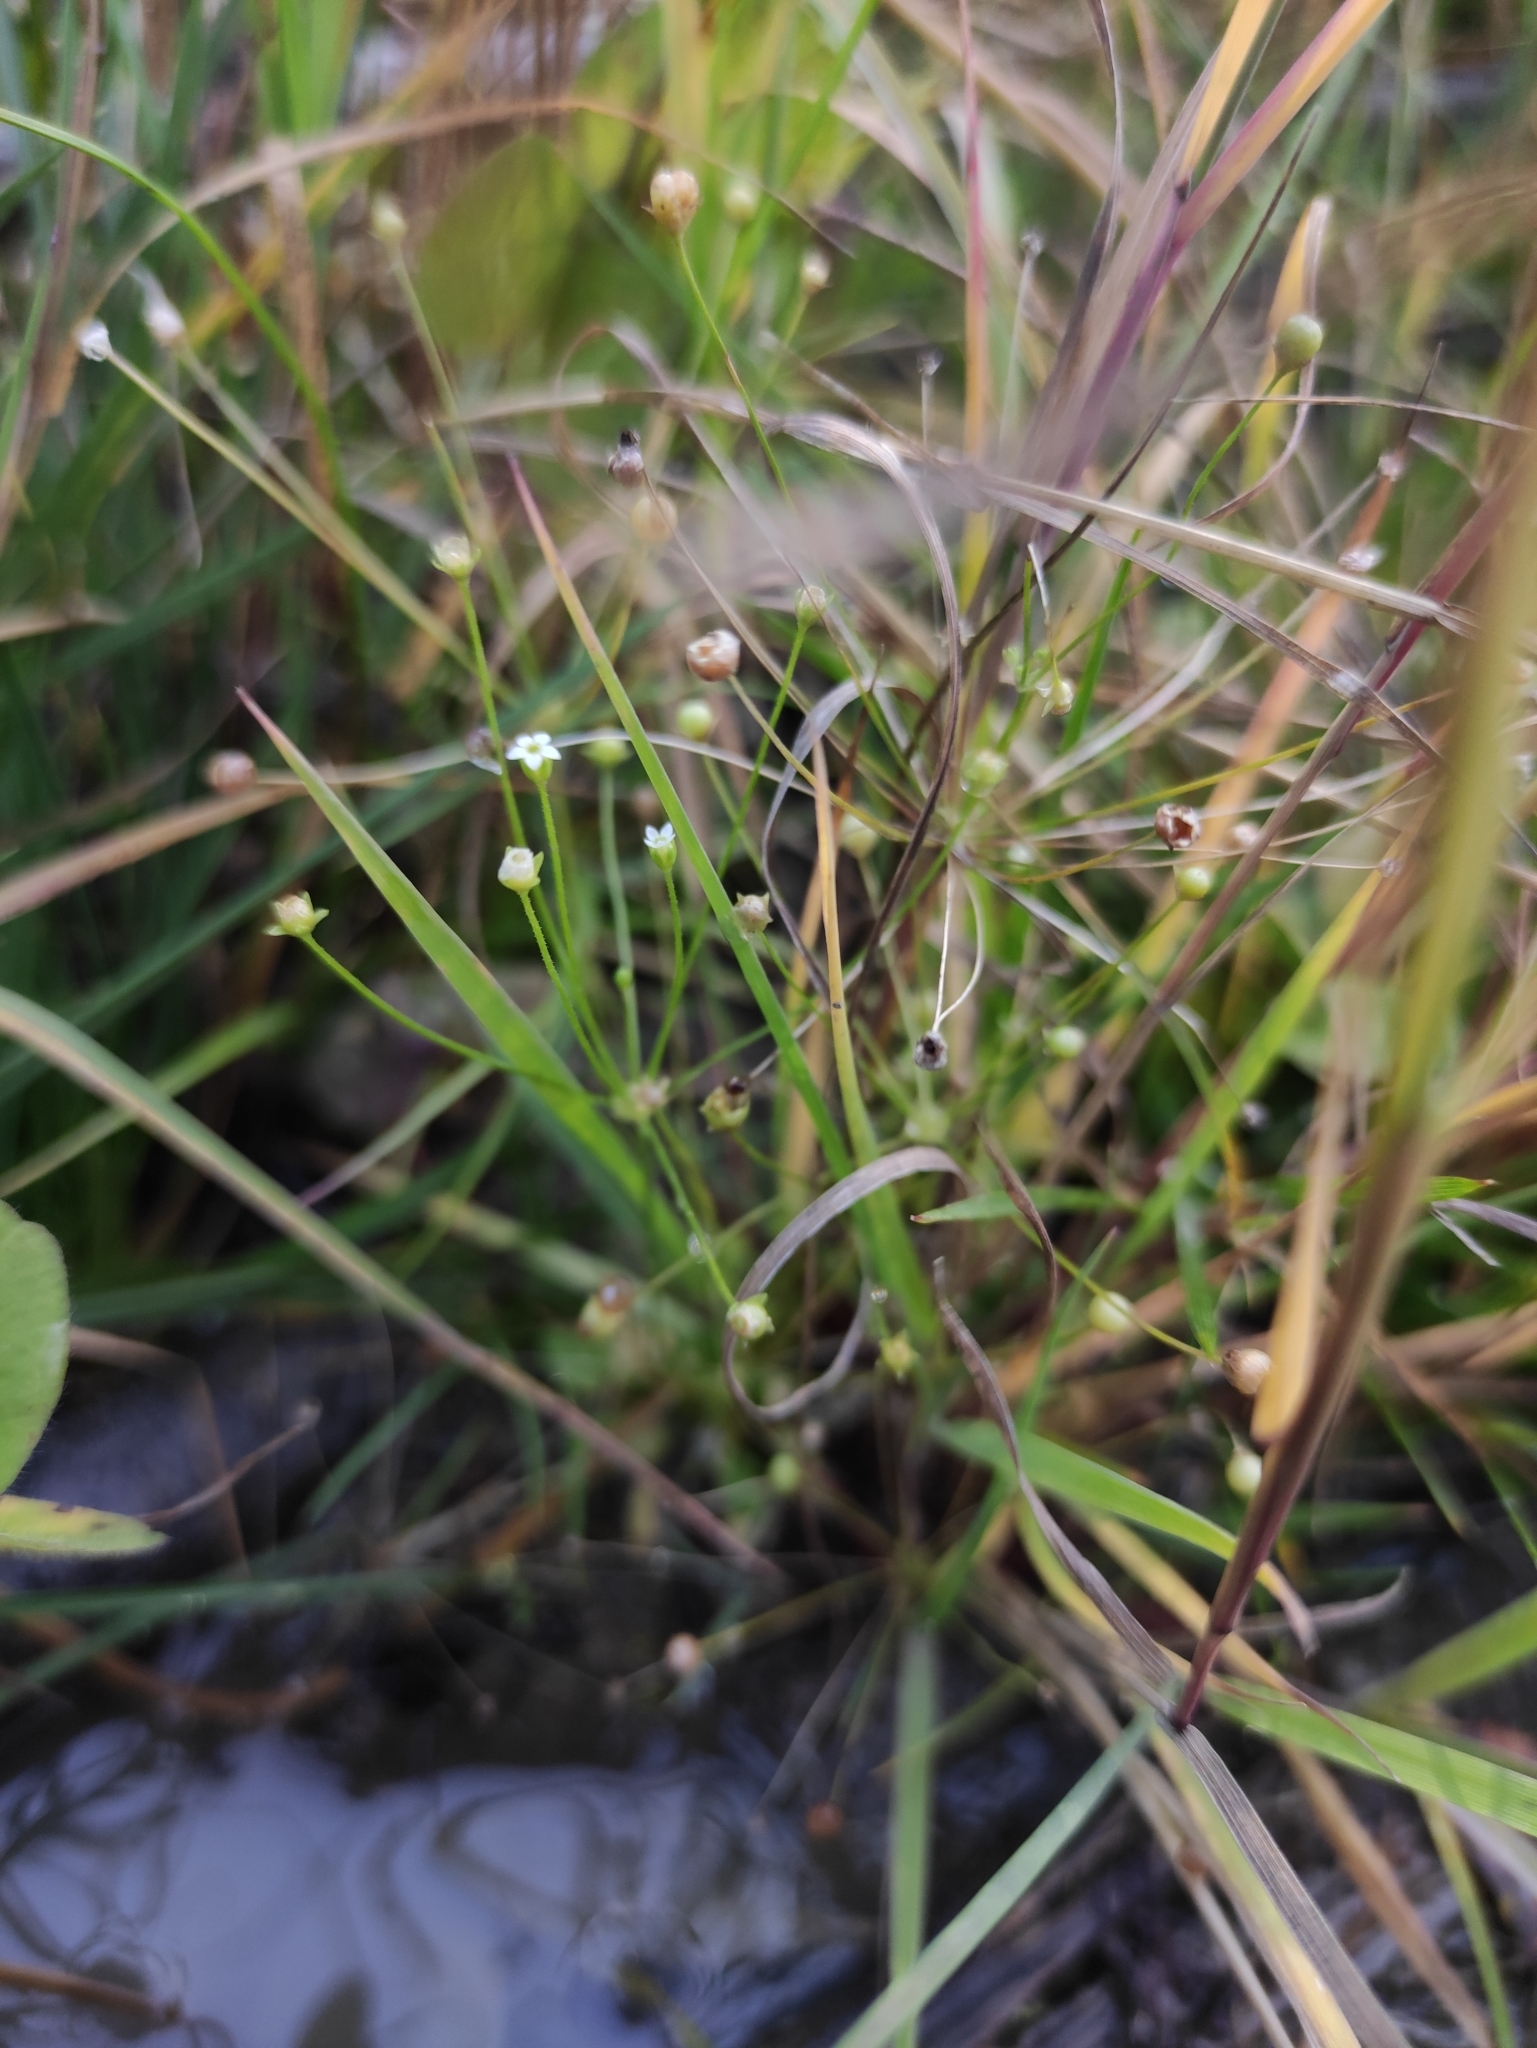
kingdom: Plantae
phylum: Tracheophyta
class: Magnoliopsida
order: Ericales
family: Primulaceae
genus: Androsace
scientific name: Androsace filiformis
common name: Filiform rock jasmine
